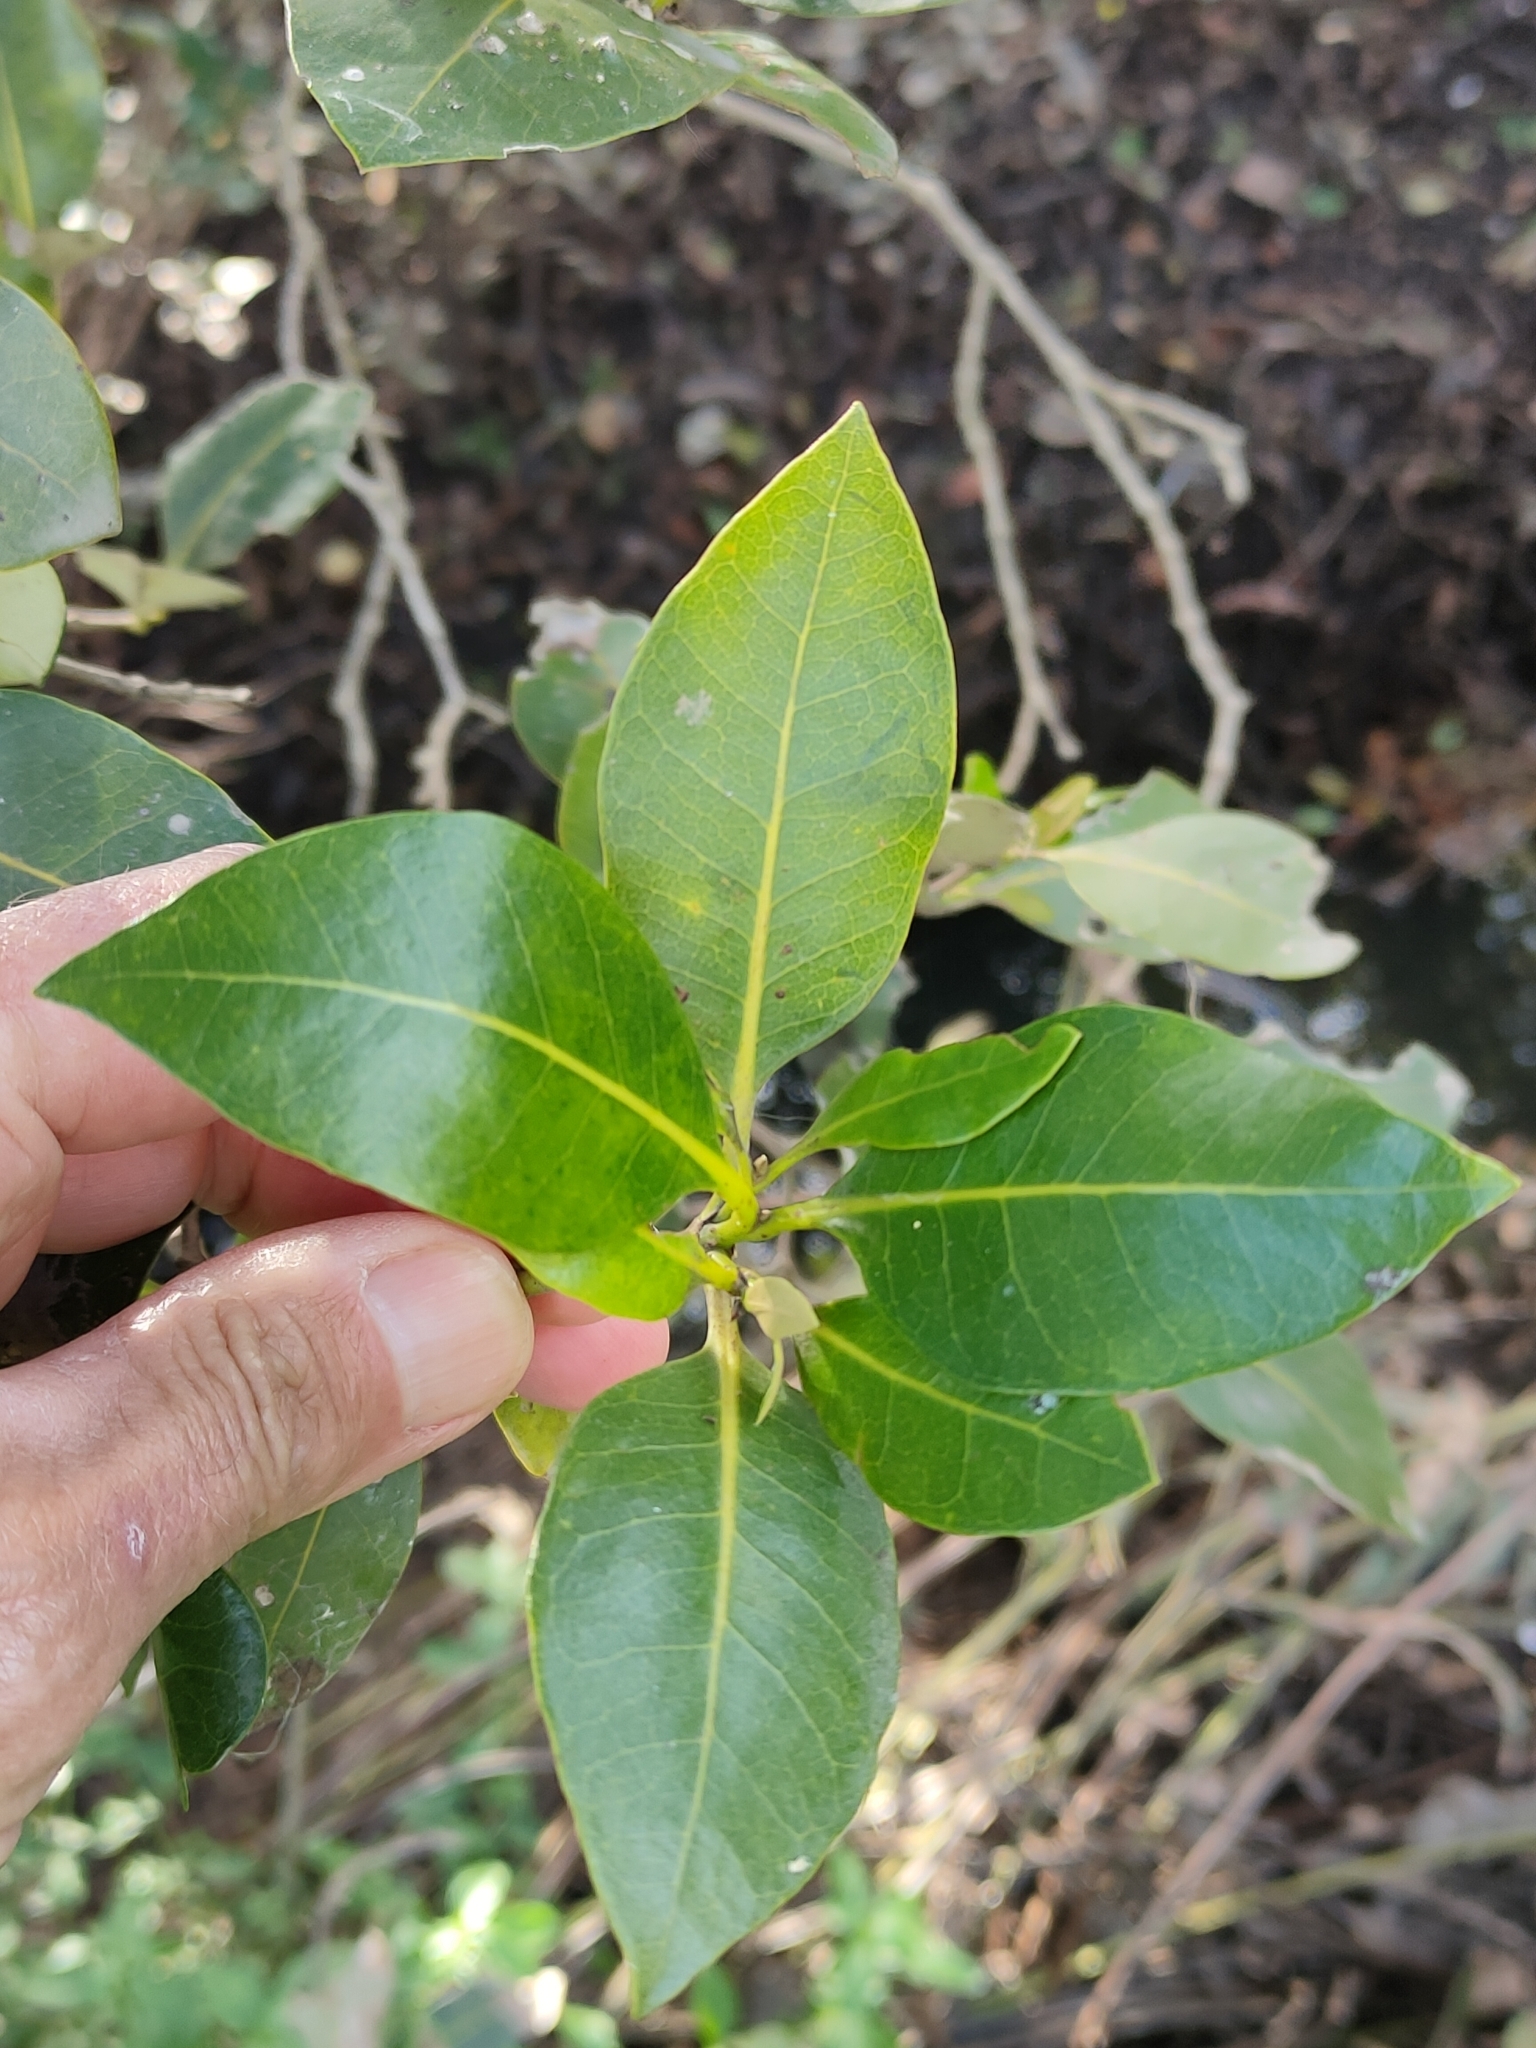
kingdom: Plantae
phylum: Tracheophyta
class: Magnoliopsida
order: Lamiales
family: Acanthaceae
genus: Avicennia
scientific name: Avicennia marina
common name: Gray mangrove
